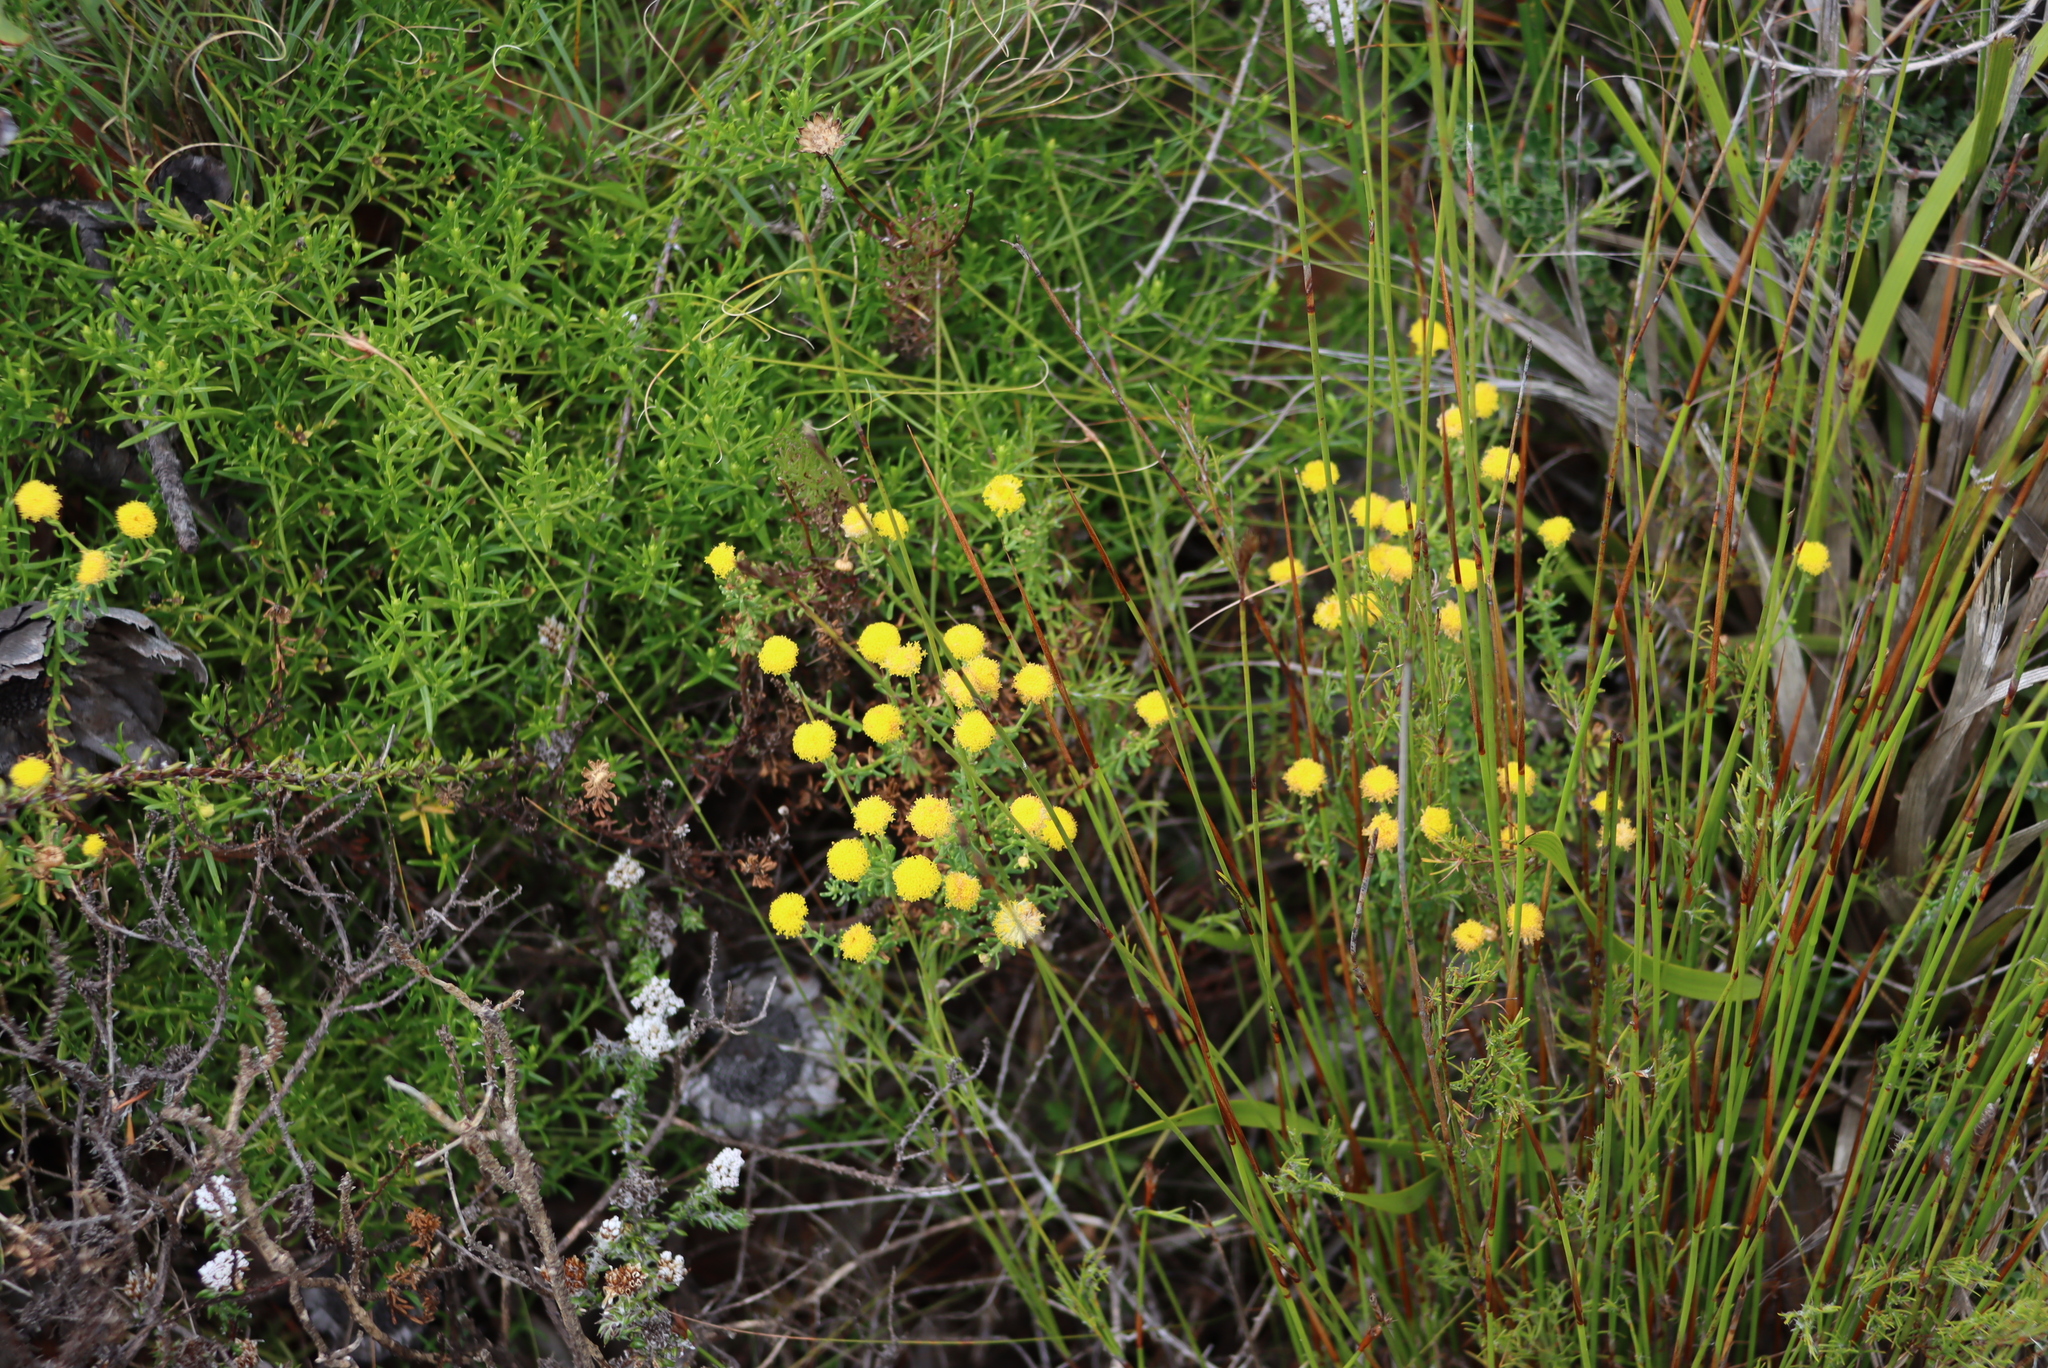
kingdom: Plantae
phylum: Tracheophyta
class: Magnoliopsida
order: Asterales
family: Asteraceae
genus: Chrysocoma
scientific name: Chrysocoma cernua
